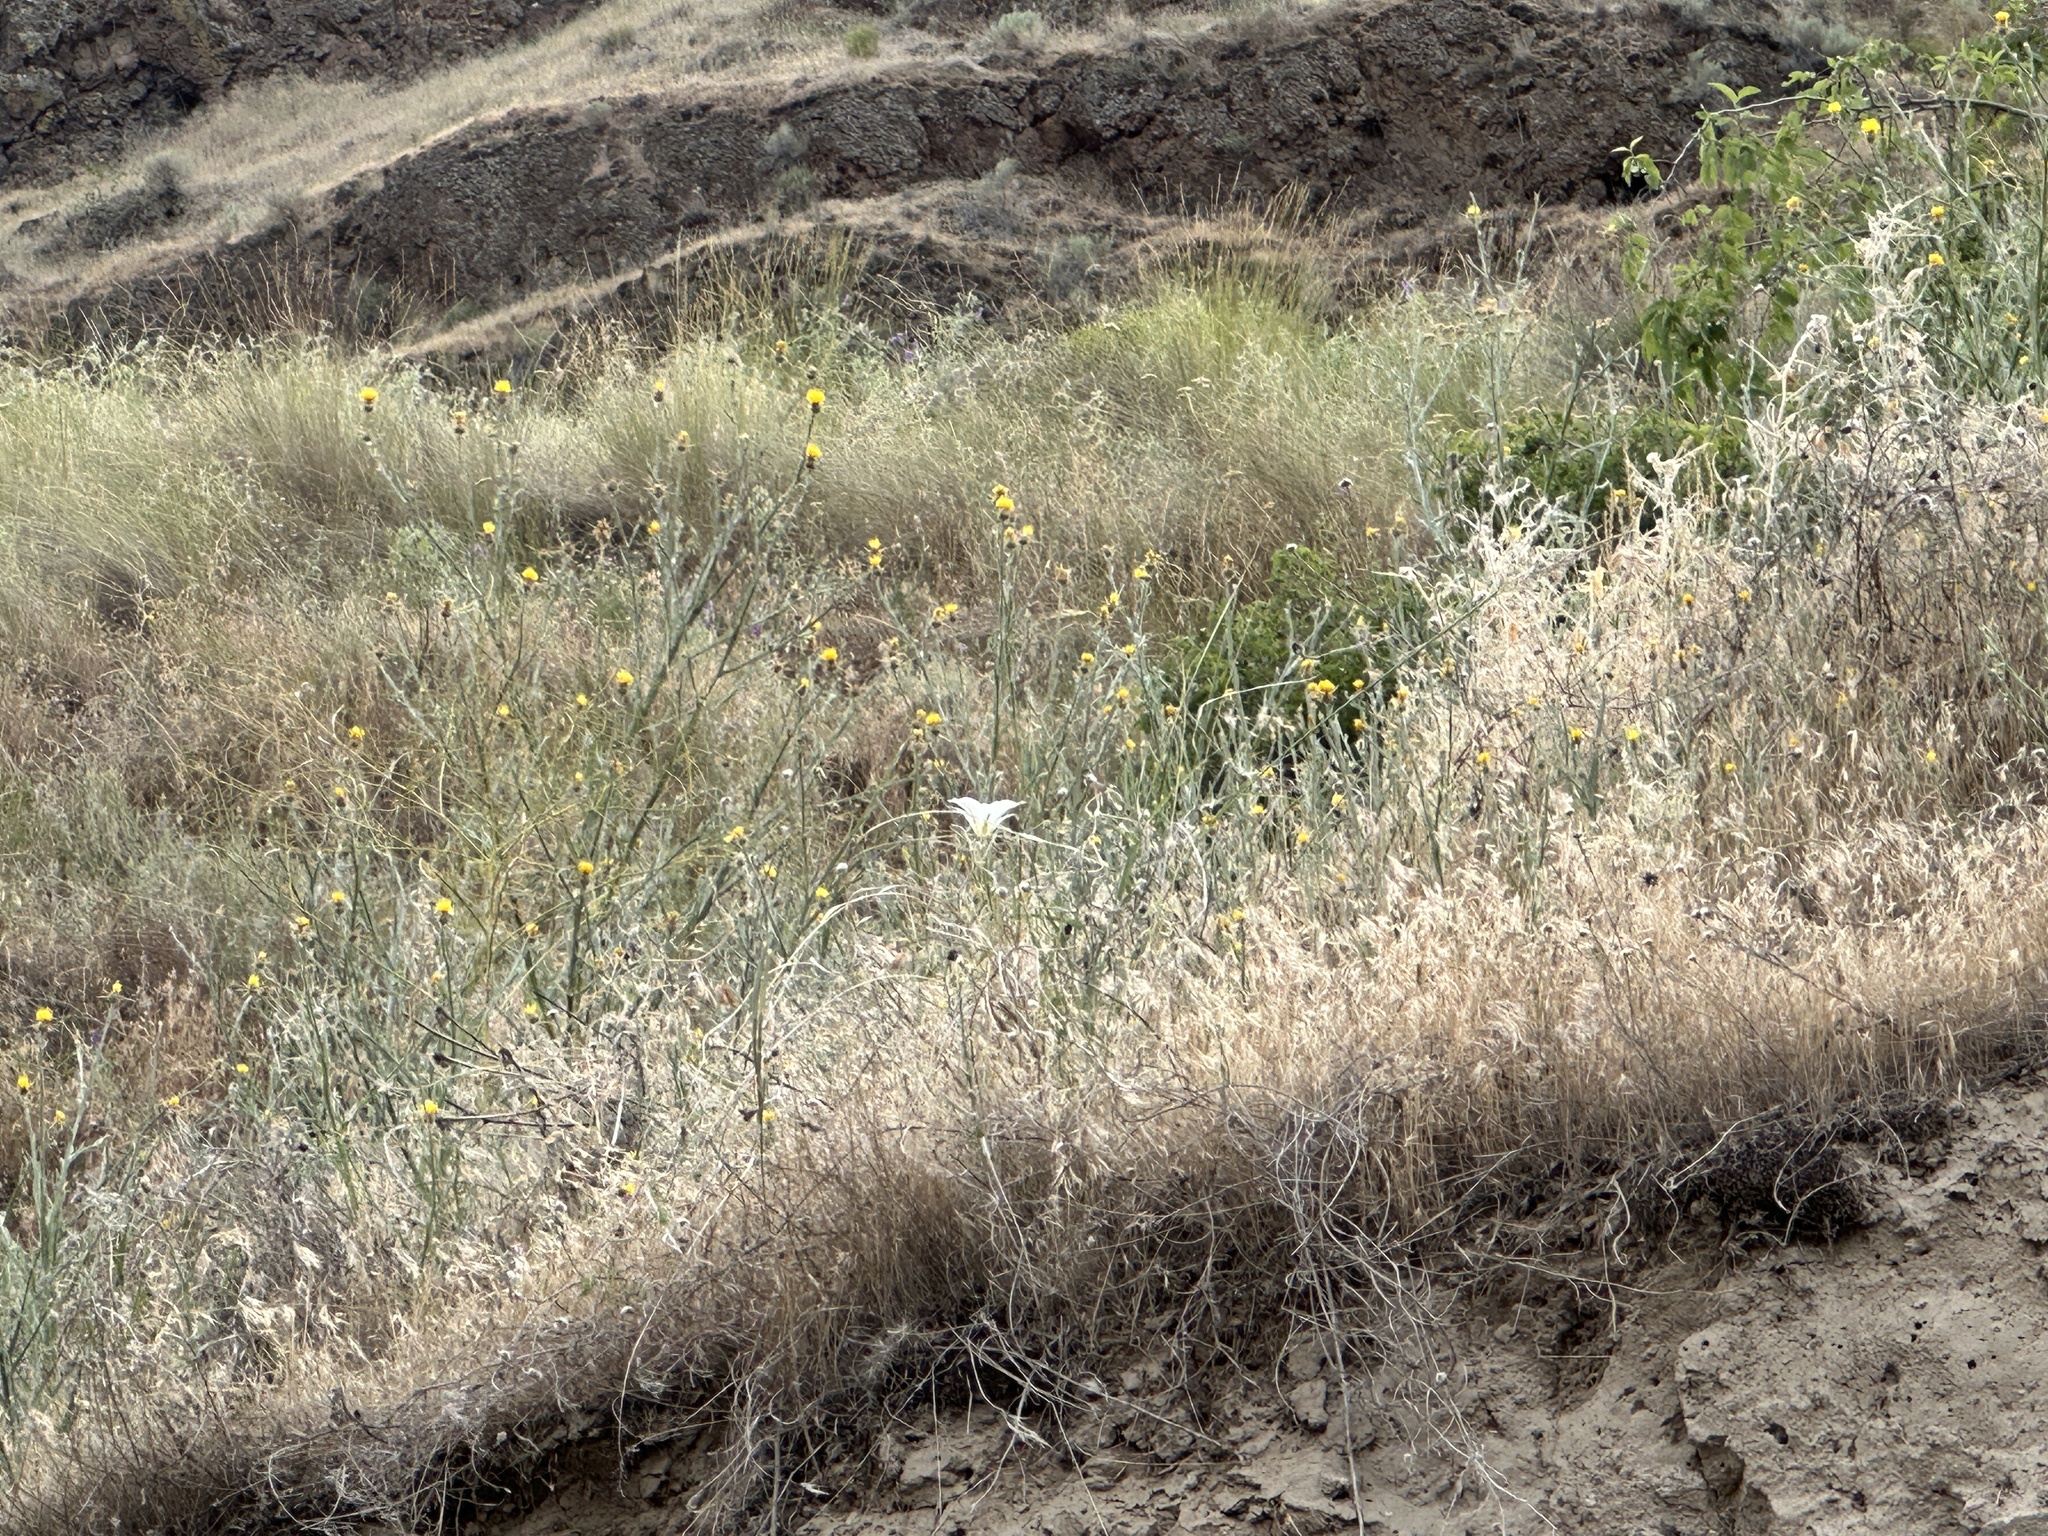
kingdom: Plantae
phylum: Tracheophyta
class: Liliopsida
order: Liliales
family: Liliaceae
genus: Calochortus
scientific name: Calochortus macrocarpus
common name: Green-band mariposa lily
